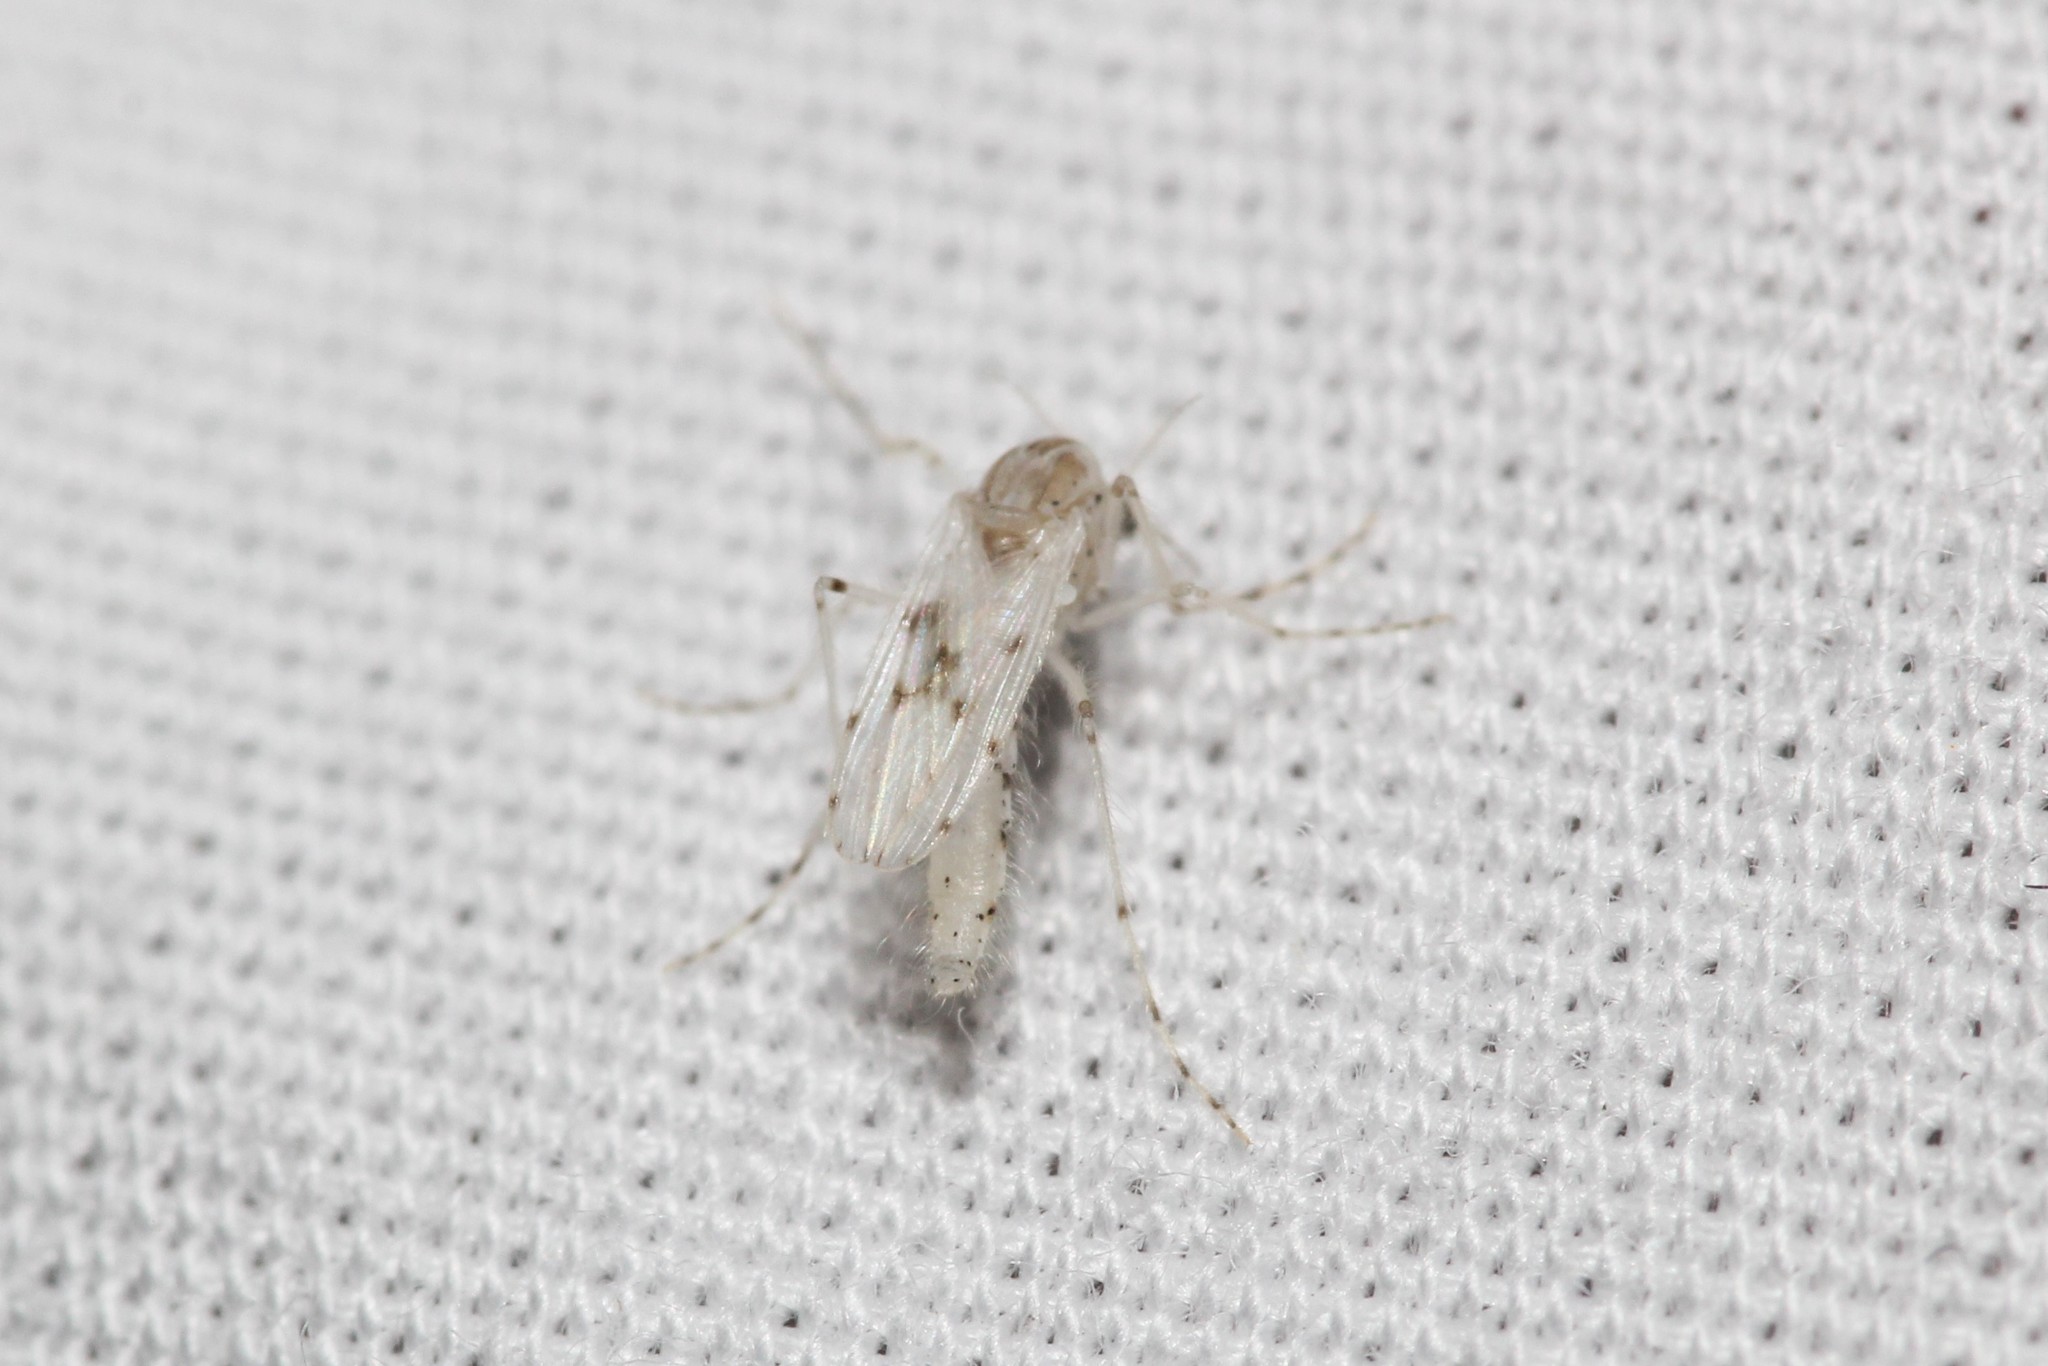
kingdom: Animalia
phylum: Arthropoda
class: Insecta
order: Diptera
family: Chaoboridae
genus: Chaoborus
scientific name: Chaoborus albatus
